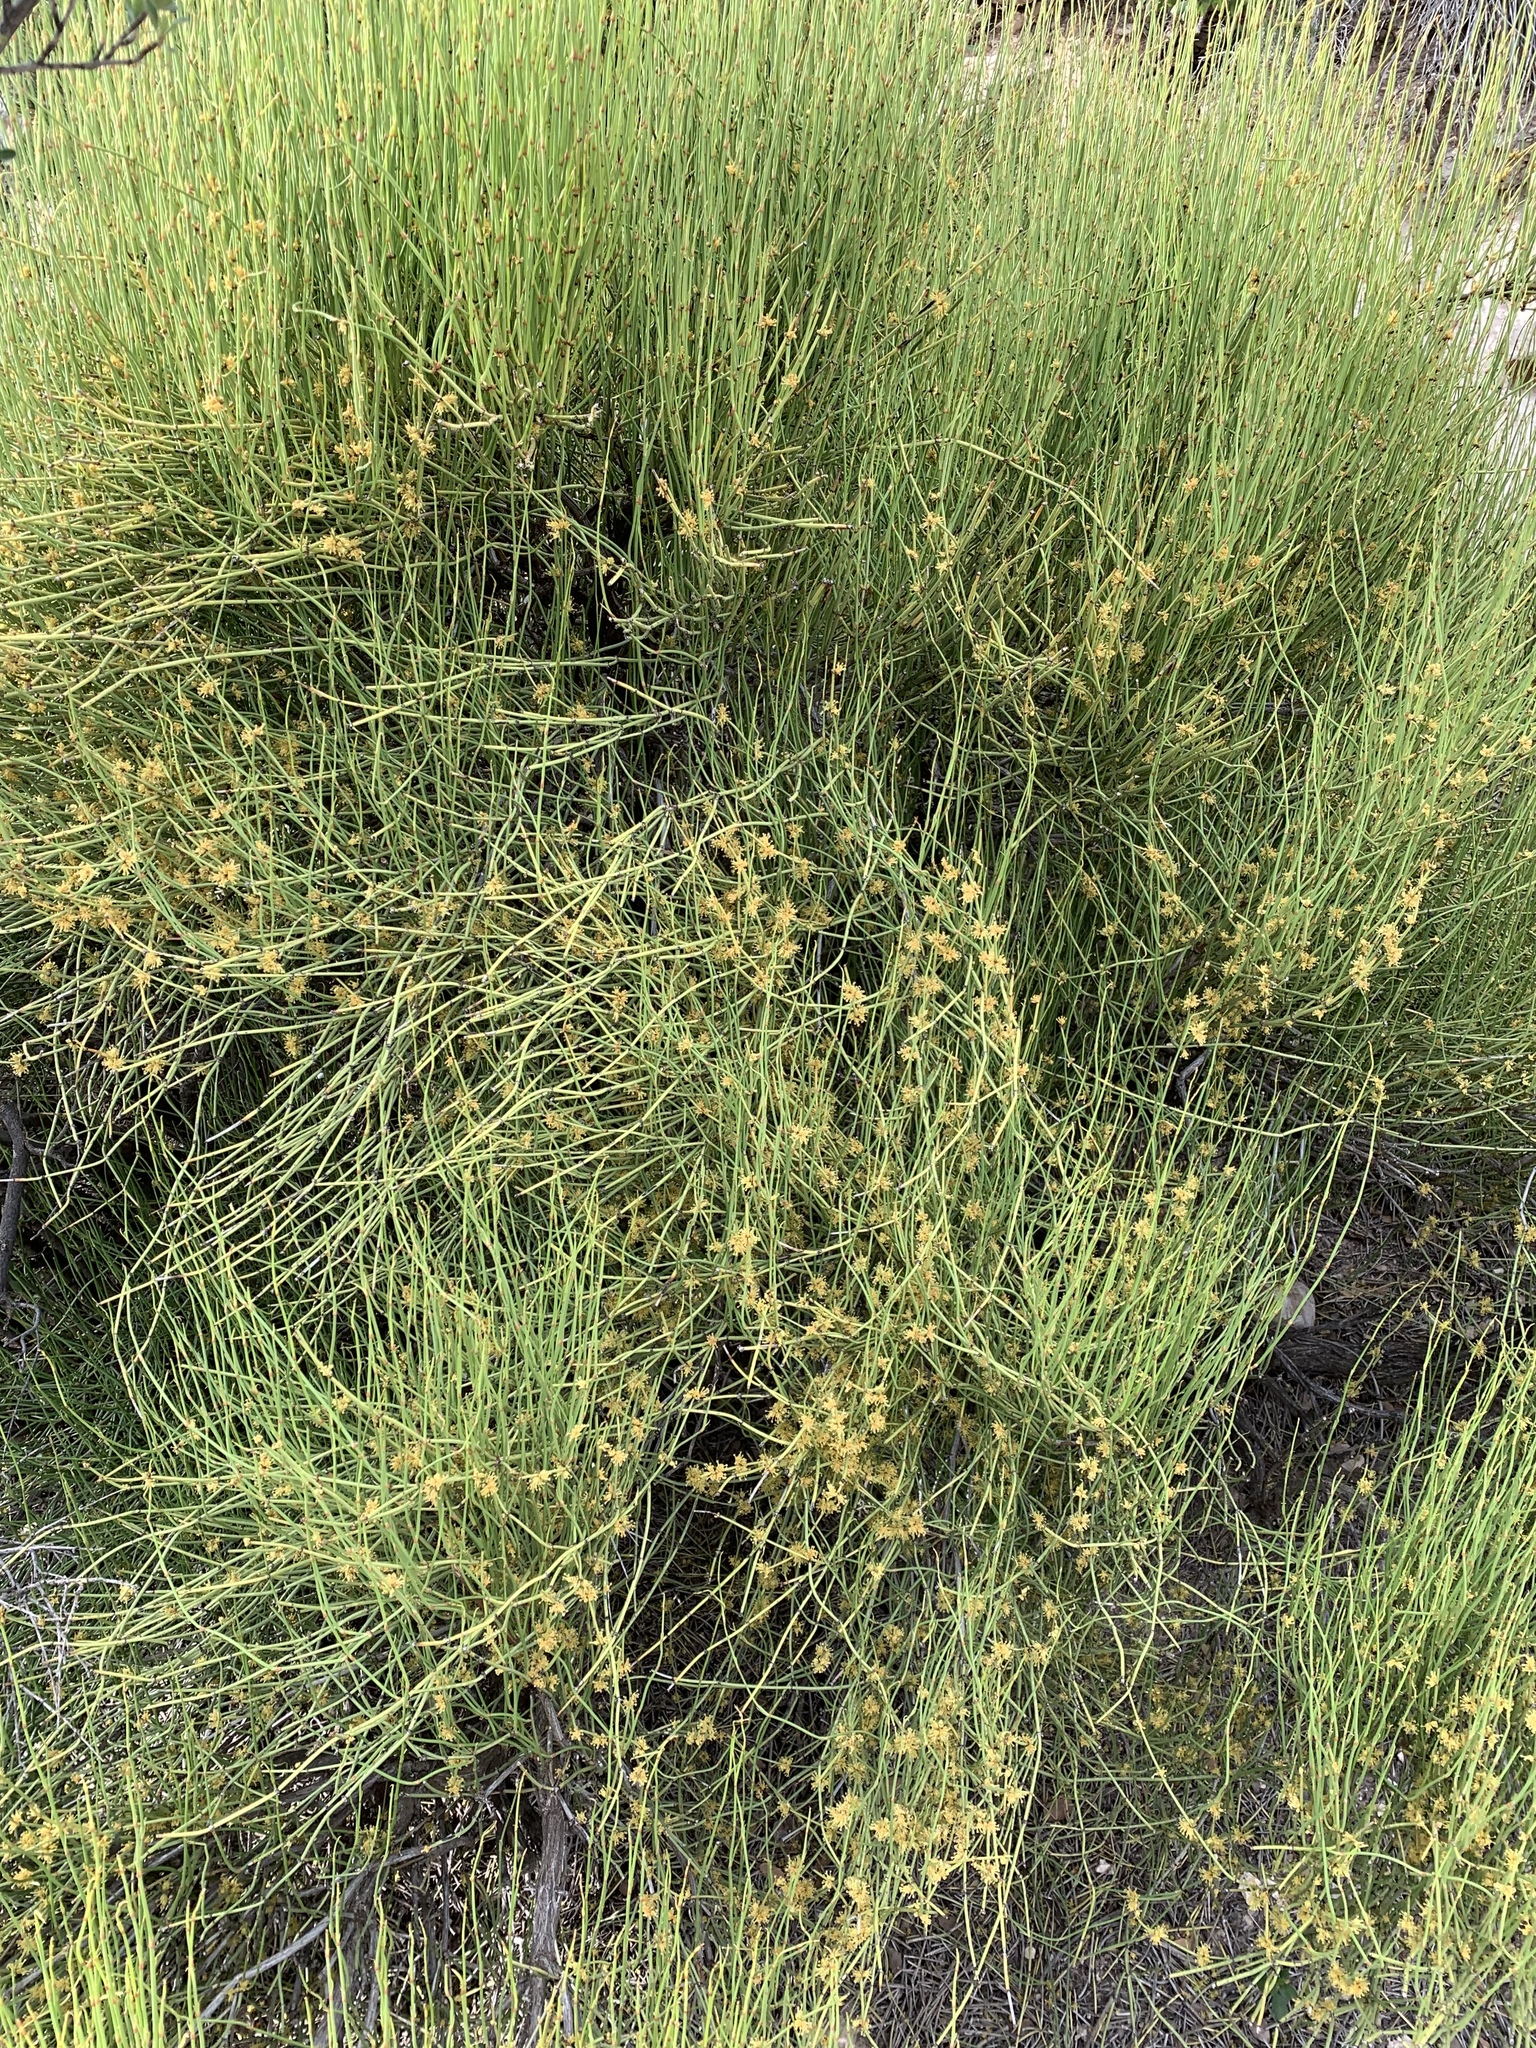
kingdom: Plantae
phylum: Tracheophyta
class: Gnetopsida
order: Ephedrales
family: Ephedraceae
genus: Ephedra
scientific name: Ephedra viridis
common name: Green ephedra
